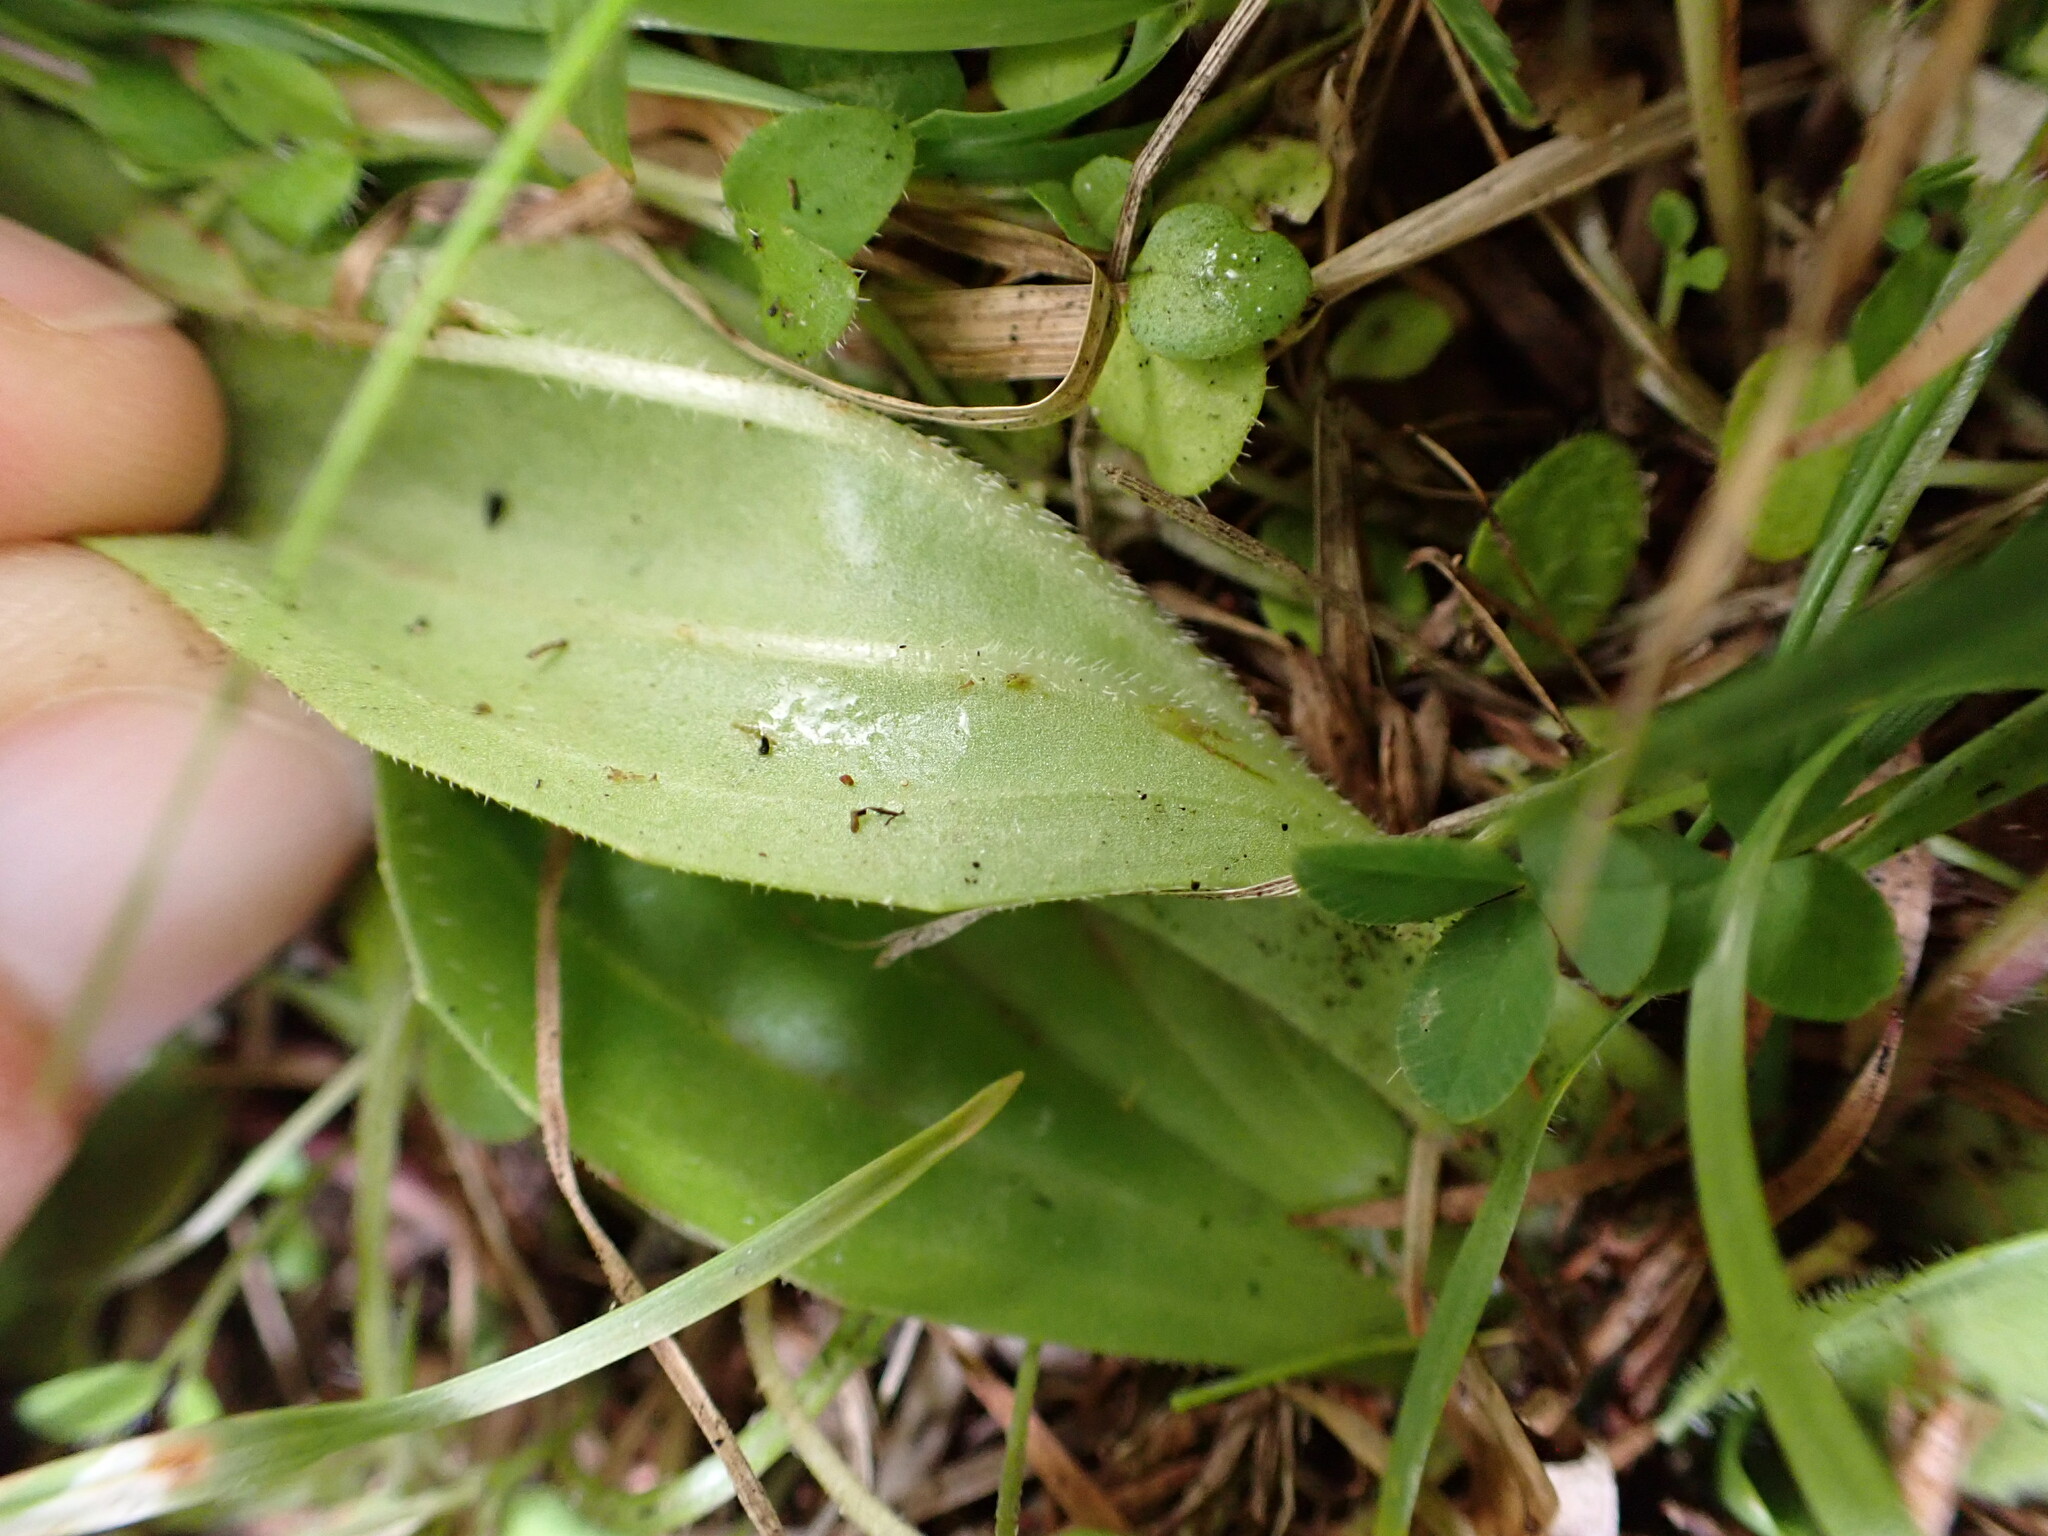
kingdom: Plantae
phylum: Tracheophyta
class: Magnoliopsida
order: Lamiales
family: Plantaginaceae
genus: Plantago
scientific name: Plantago australis
